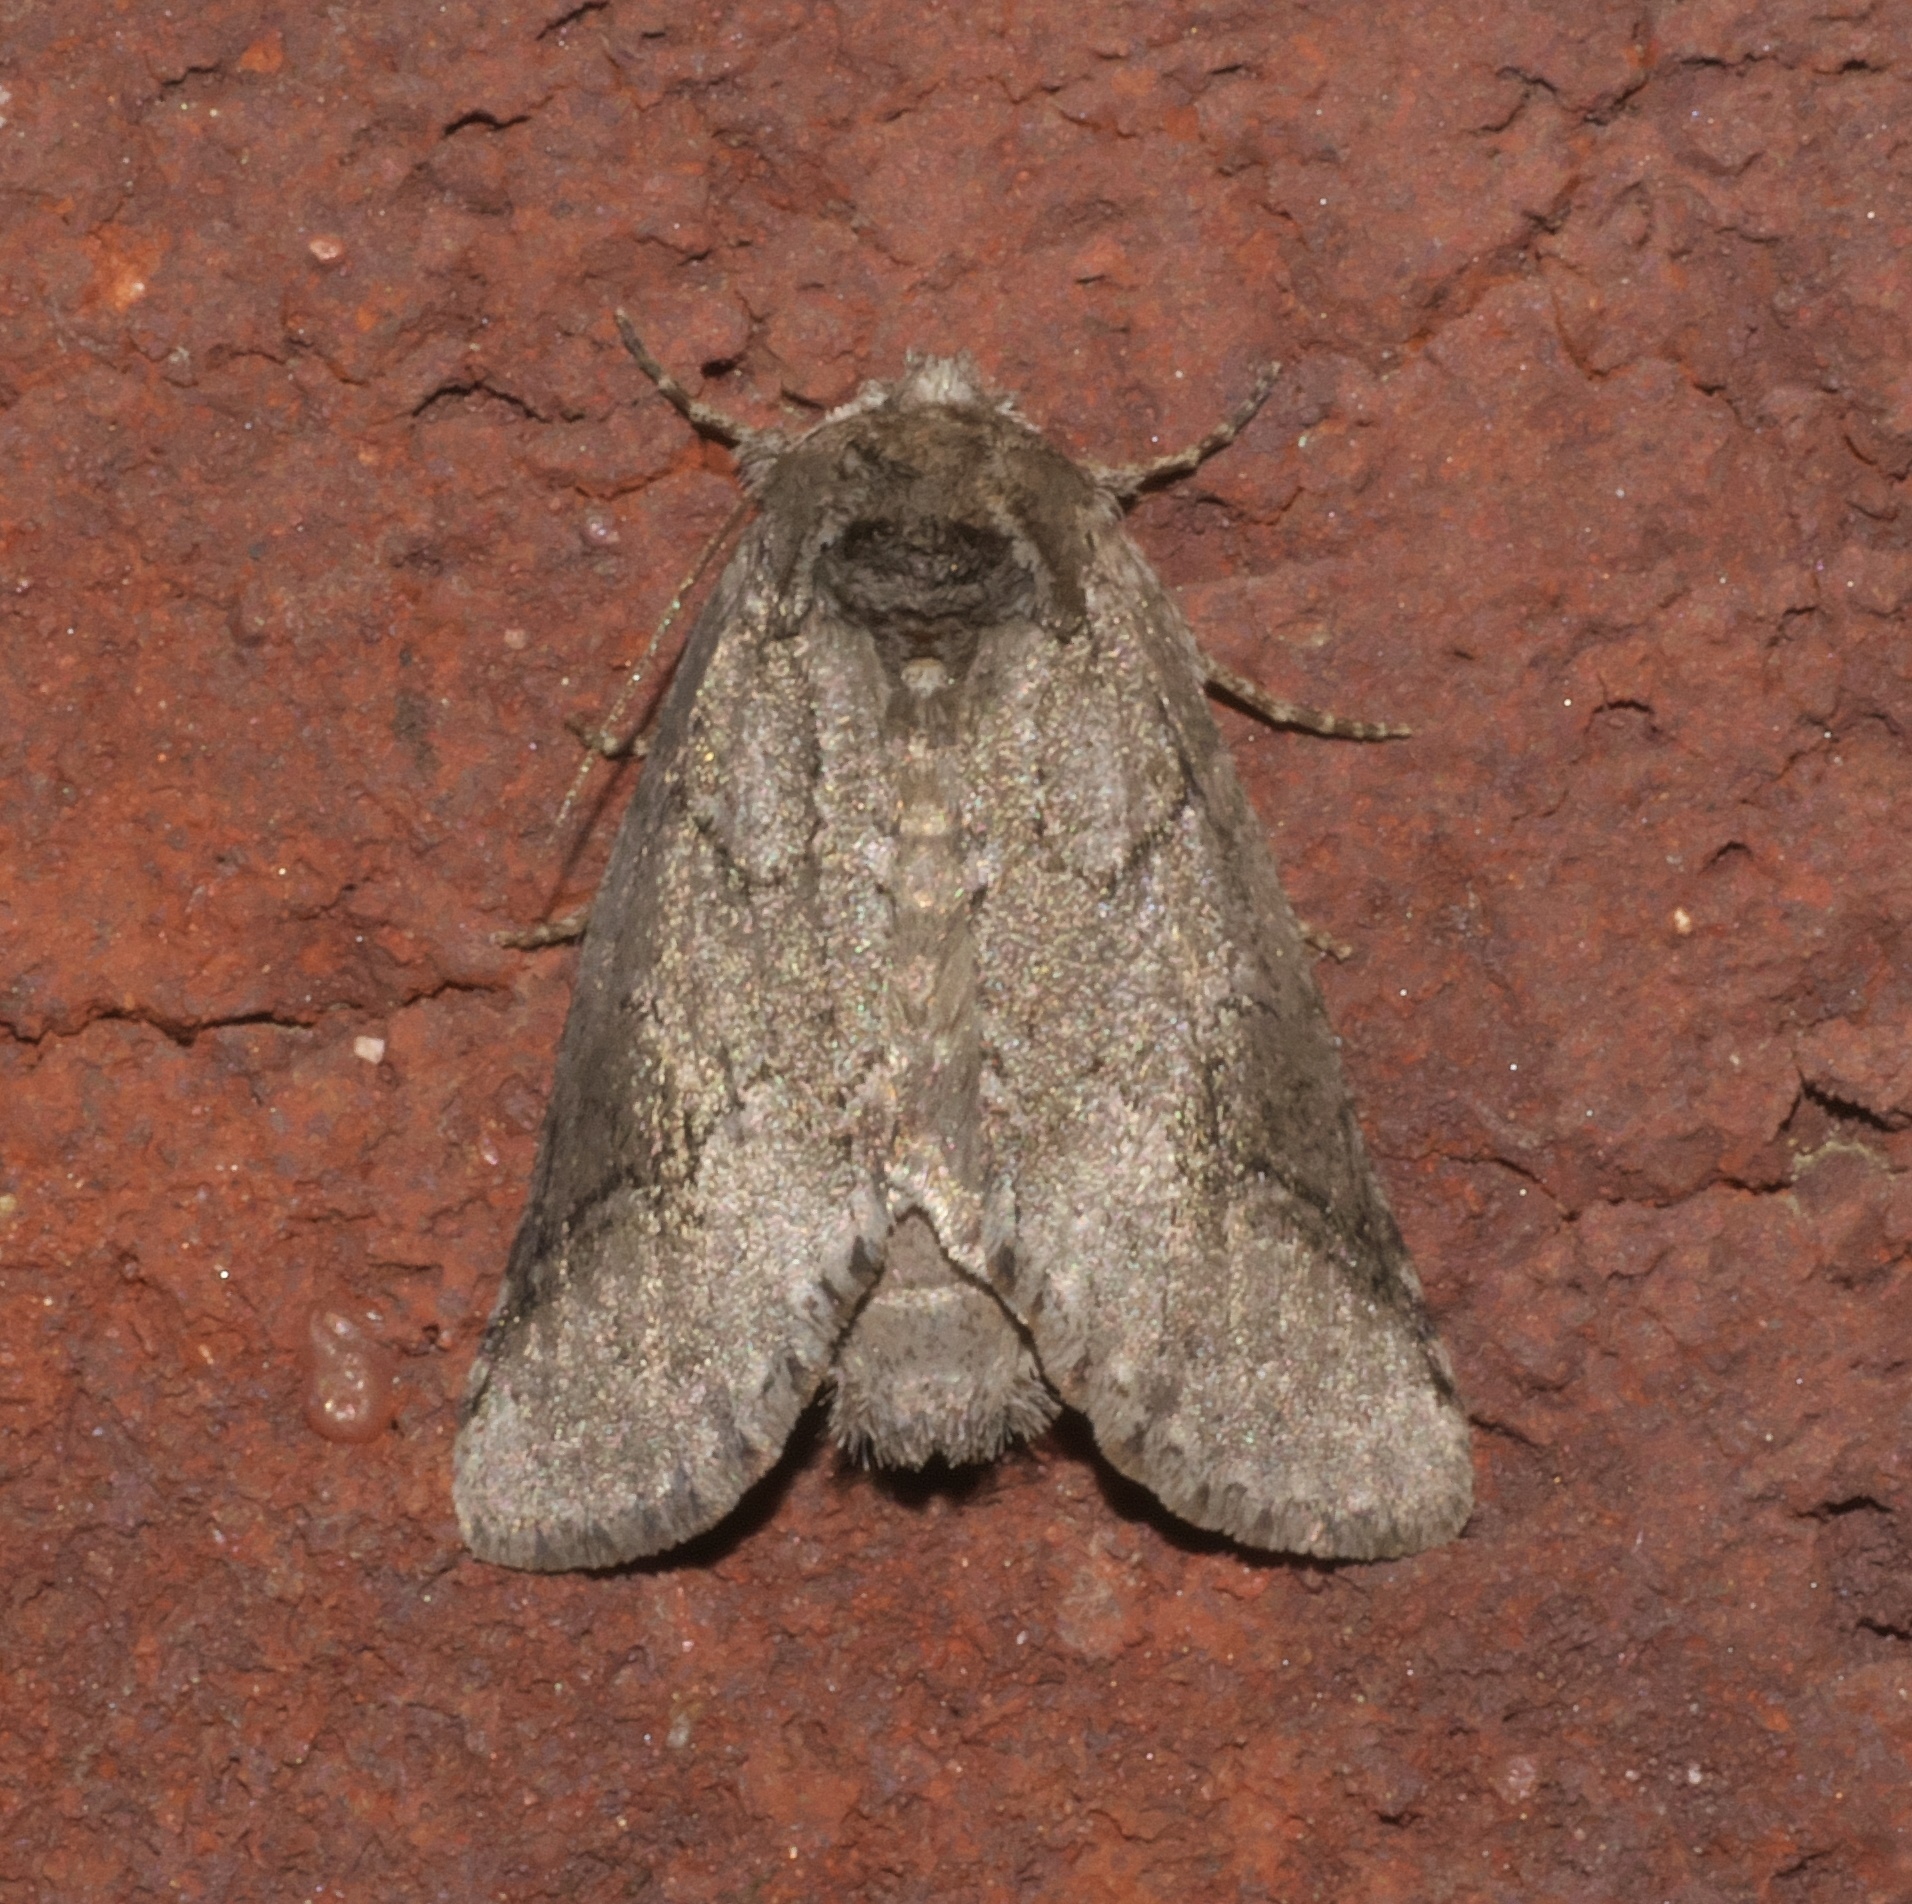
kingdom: Animalia
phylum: Arthropoda
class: Insecta
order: Lepidoptera
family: Notodontidae
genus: Lochmaeus
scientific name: Lochmaeus bilineata
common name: Double-lined prominent
